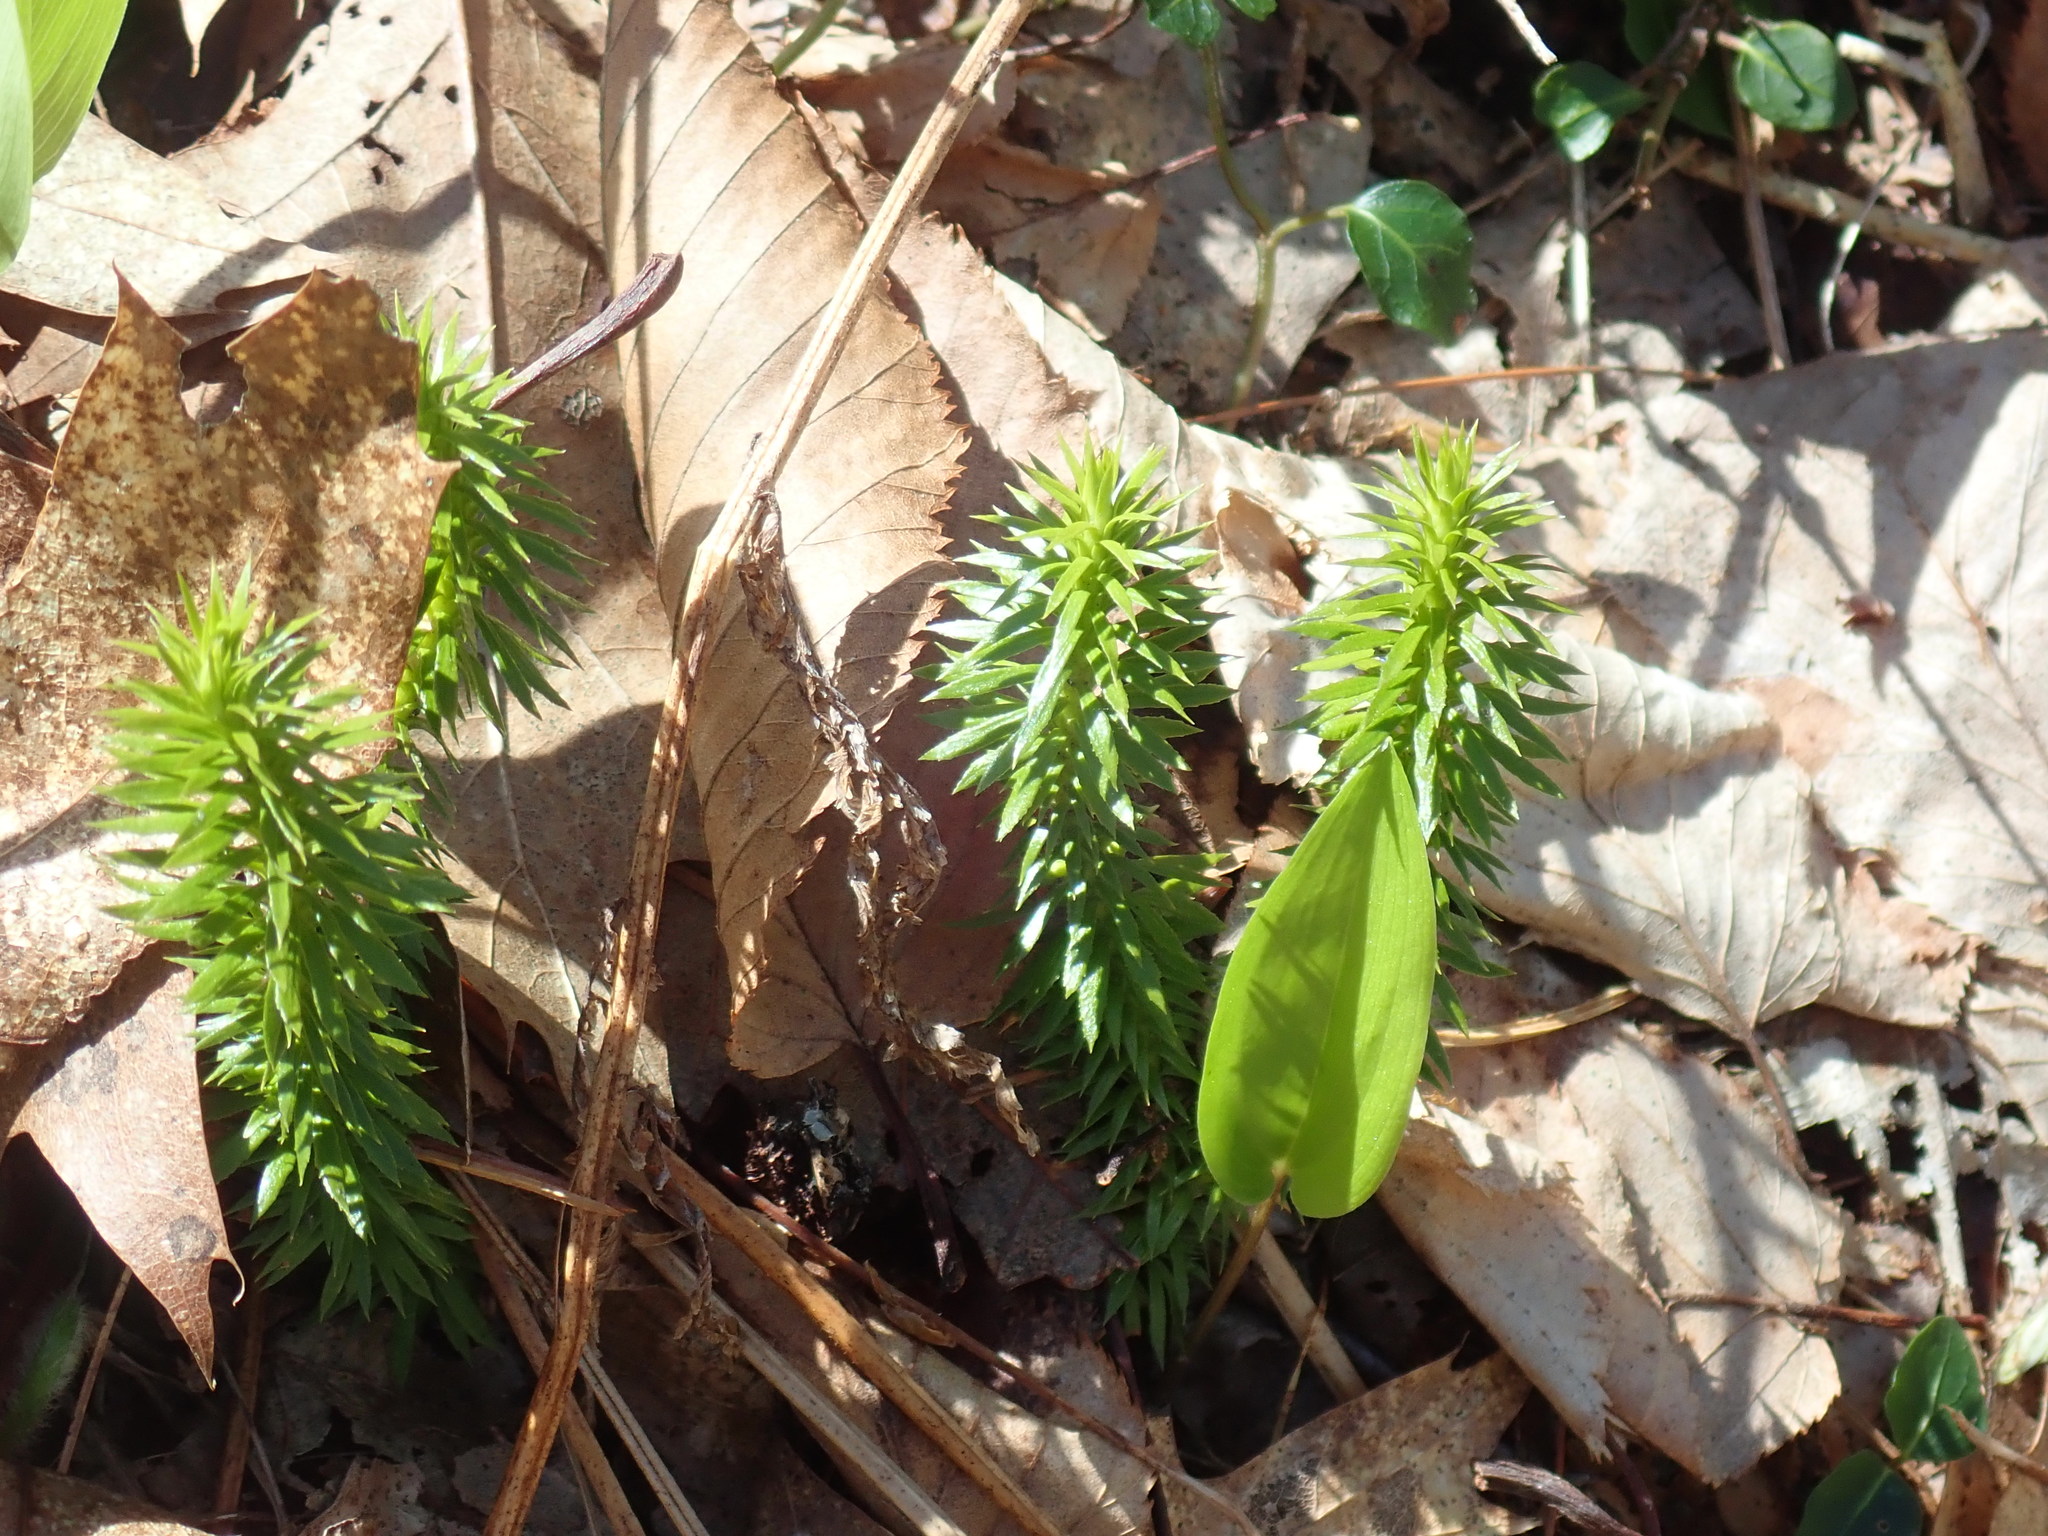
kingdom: Plantae
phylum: Tracheophyta
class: Lycopodiopsida
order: Lycopodiales
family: Lycopodiaceae
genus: Huperzia
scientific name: Huperzia lucidula
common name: Shining clubmoss
